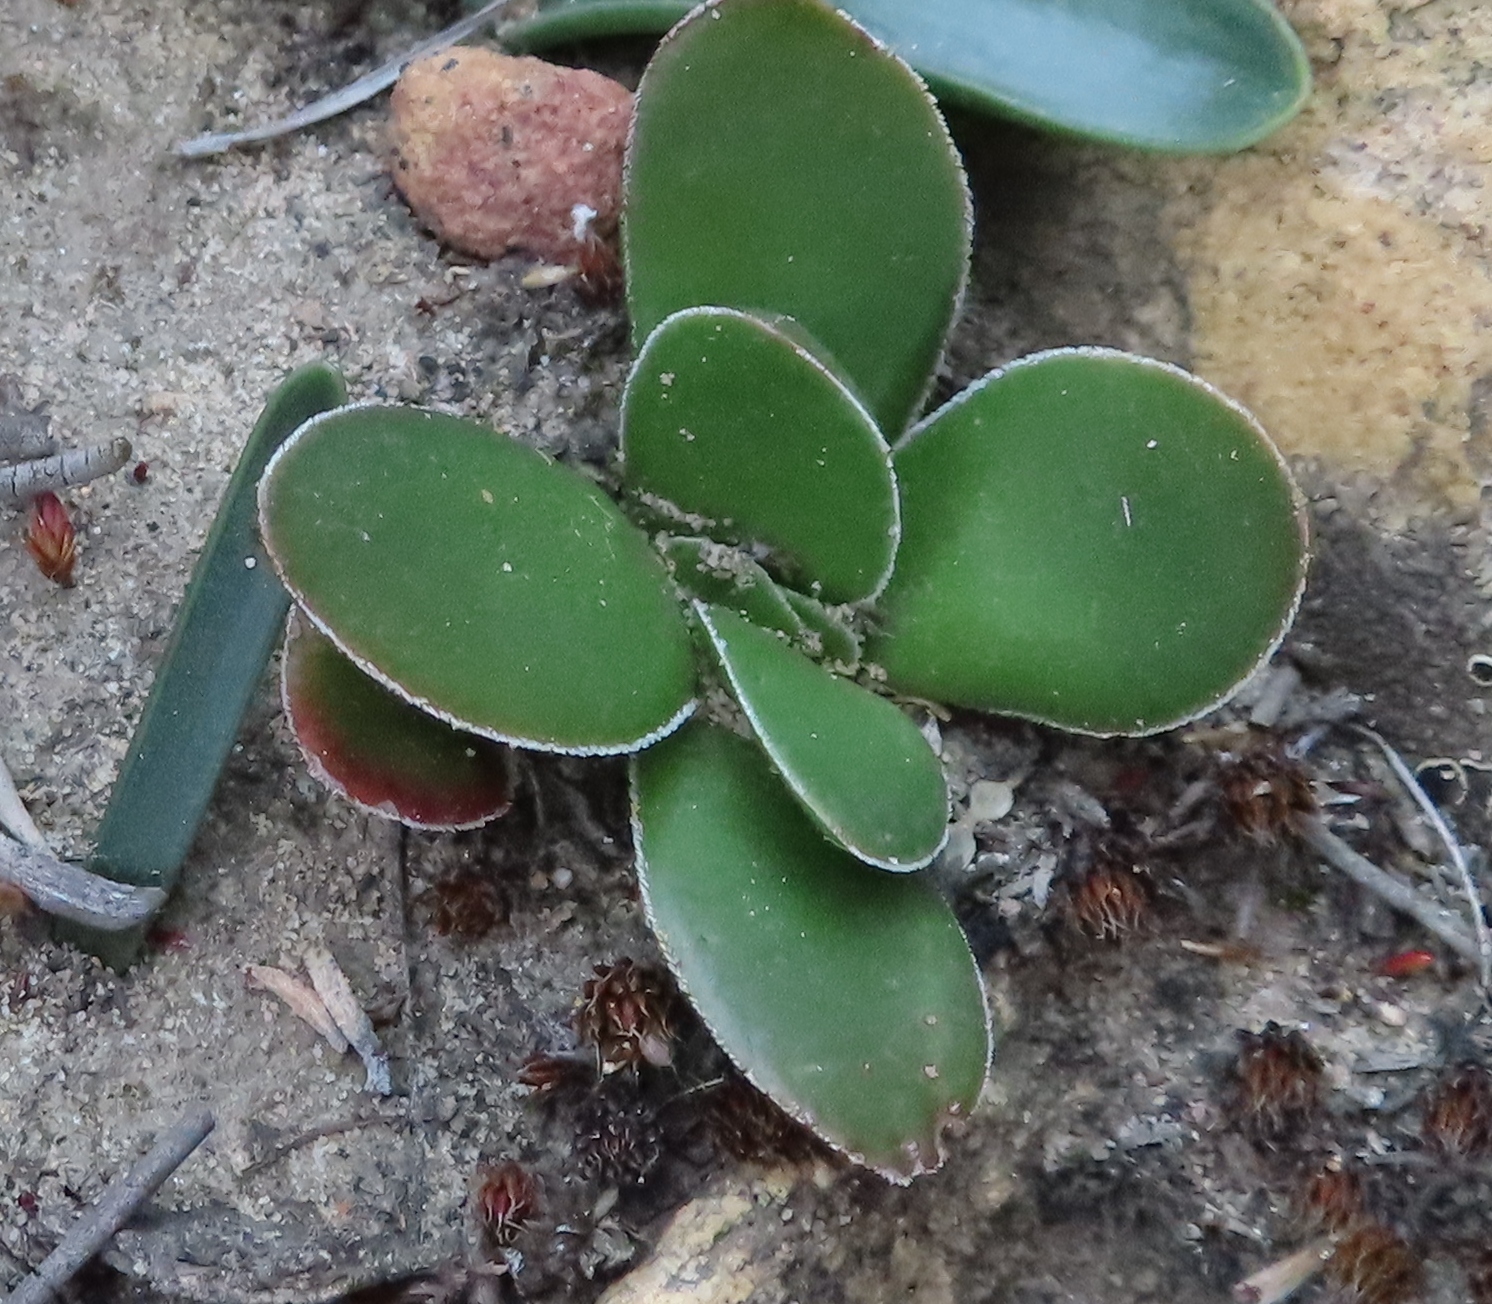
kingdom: Plantae
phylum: Tracheophyta
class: Magnoliopsida
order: Saxifragales
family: Crassulaceae
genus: Crassula
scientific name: Crassula nudicaulis
